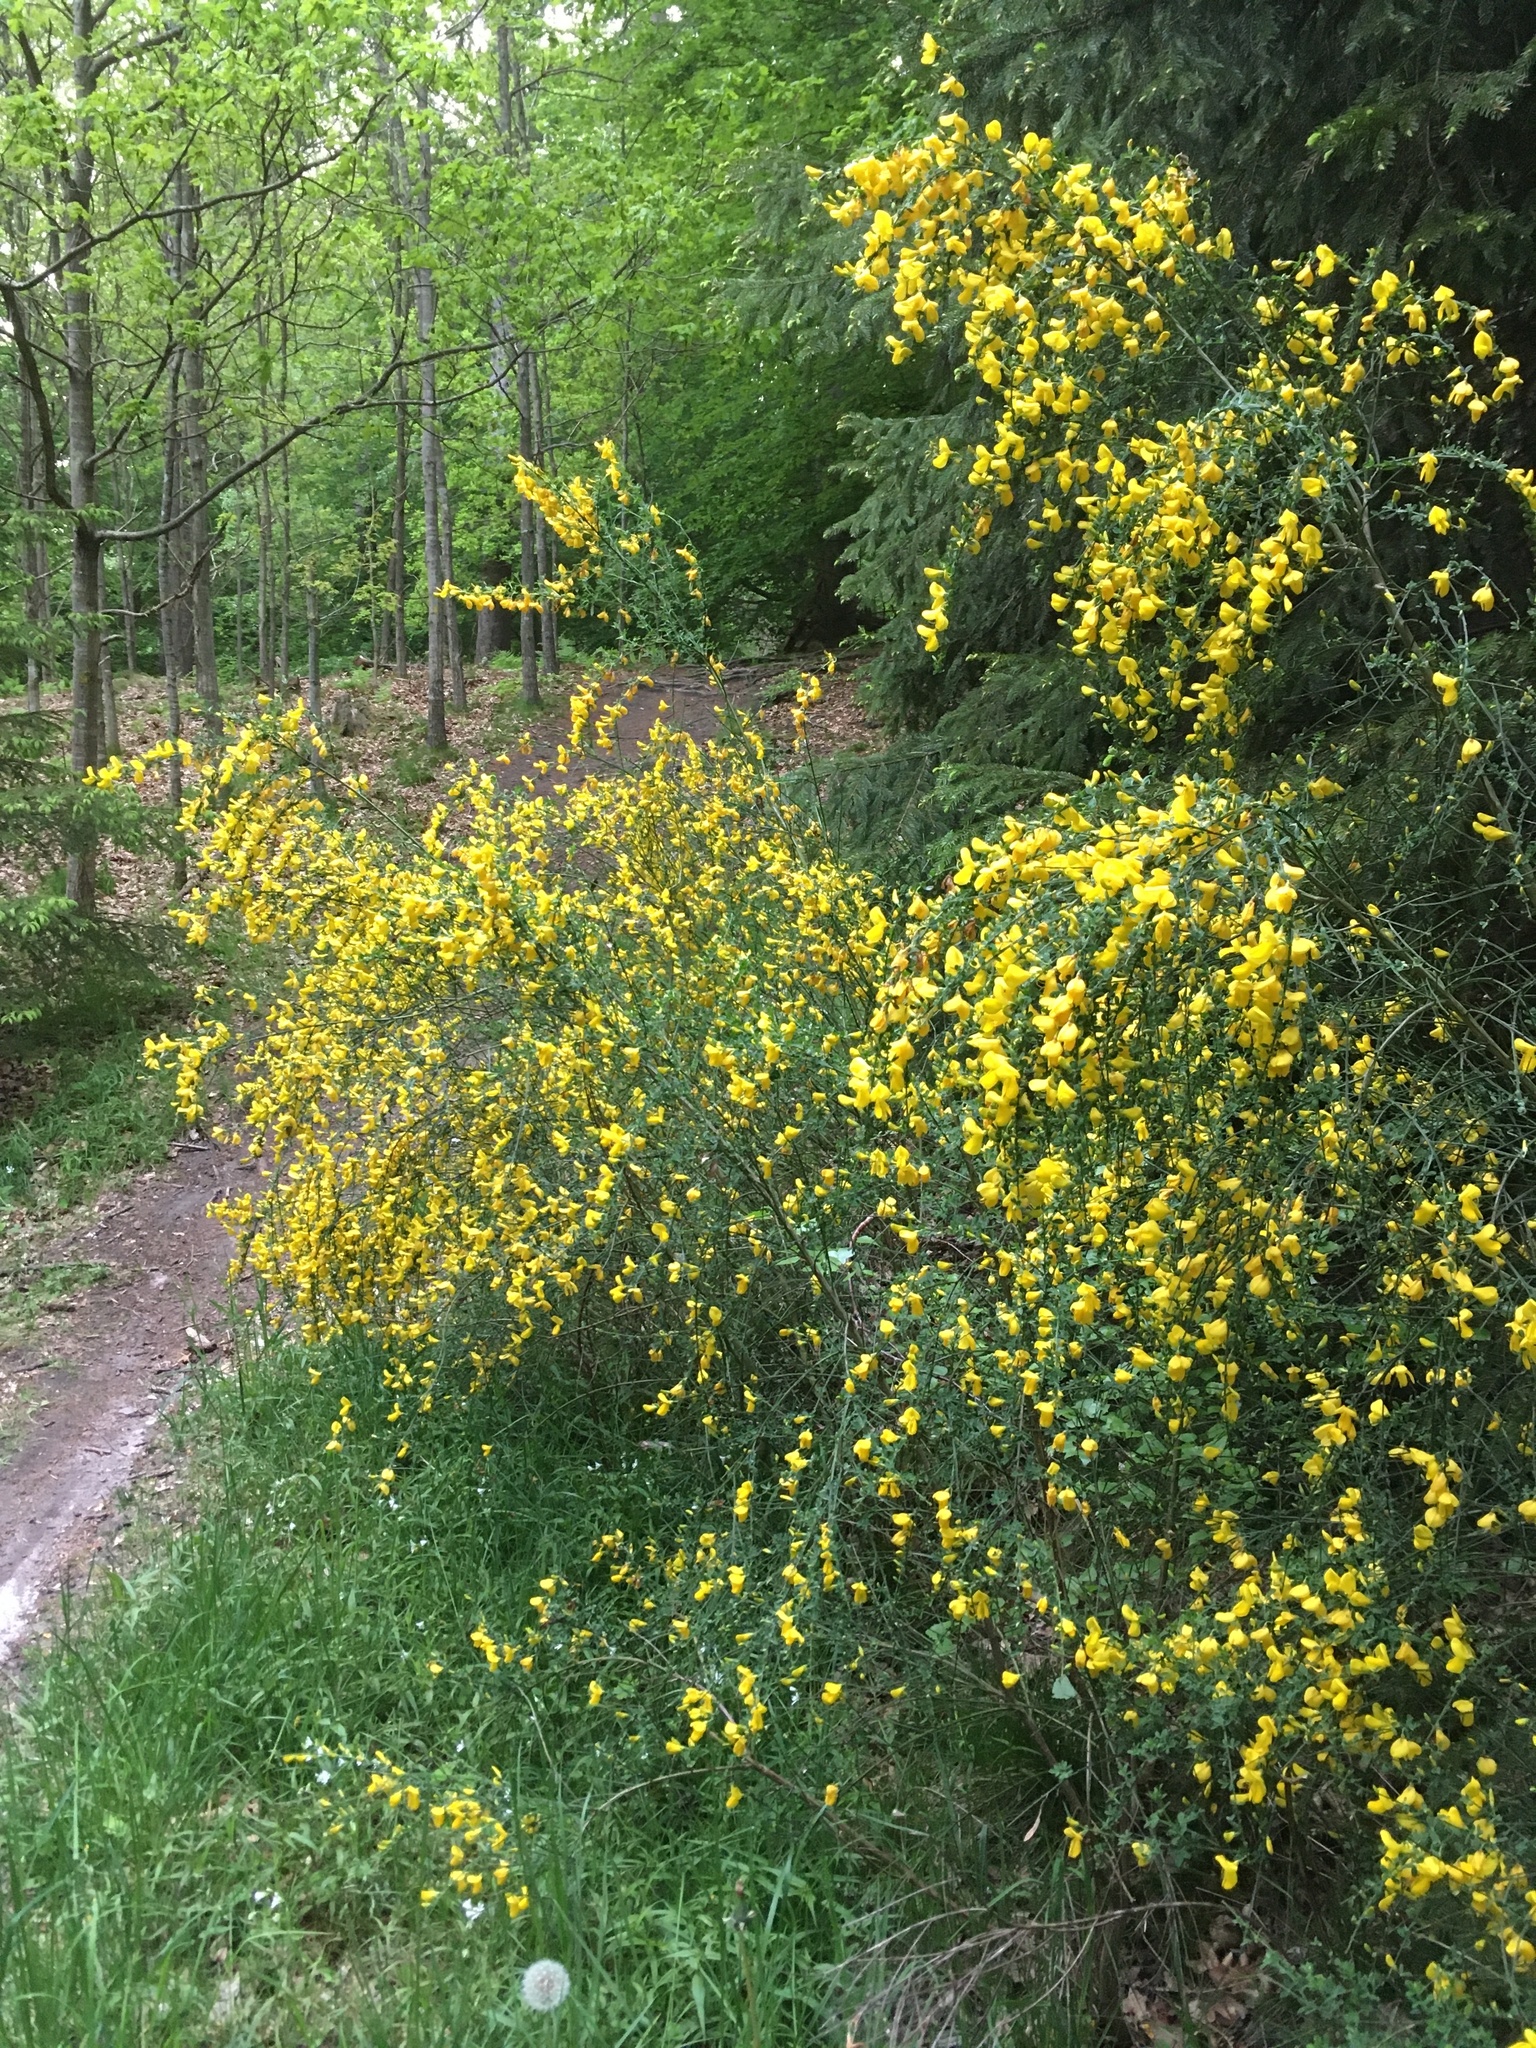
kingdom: Plantae
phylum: Tracheophyta
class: Magnoliopsida
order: Fabales
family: Fabaceae
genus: Cytisus
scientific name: Cytisus scoparius
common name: Scotch broom
